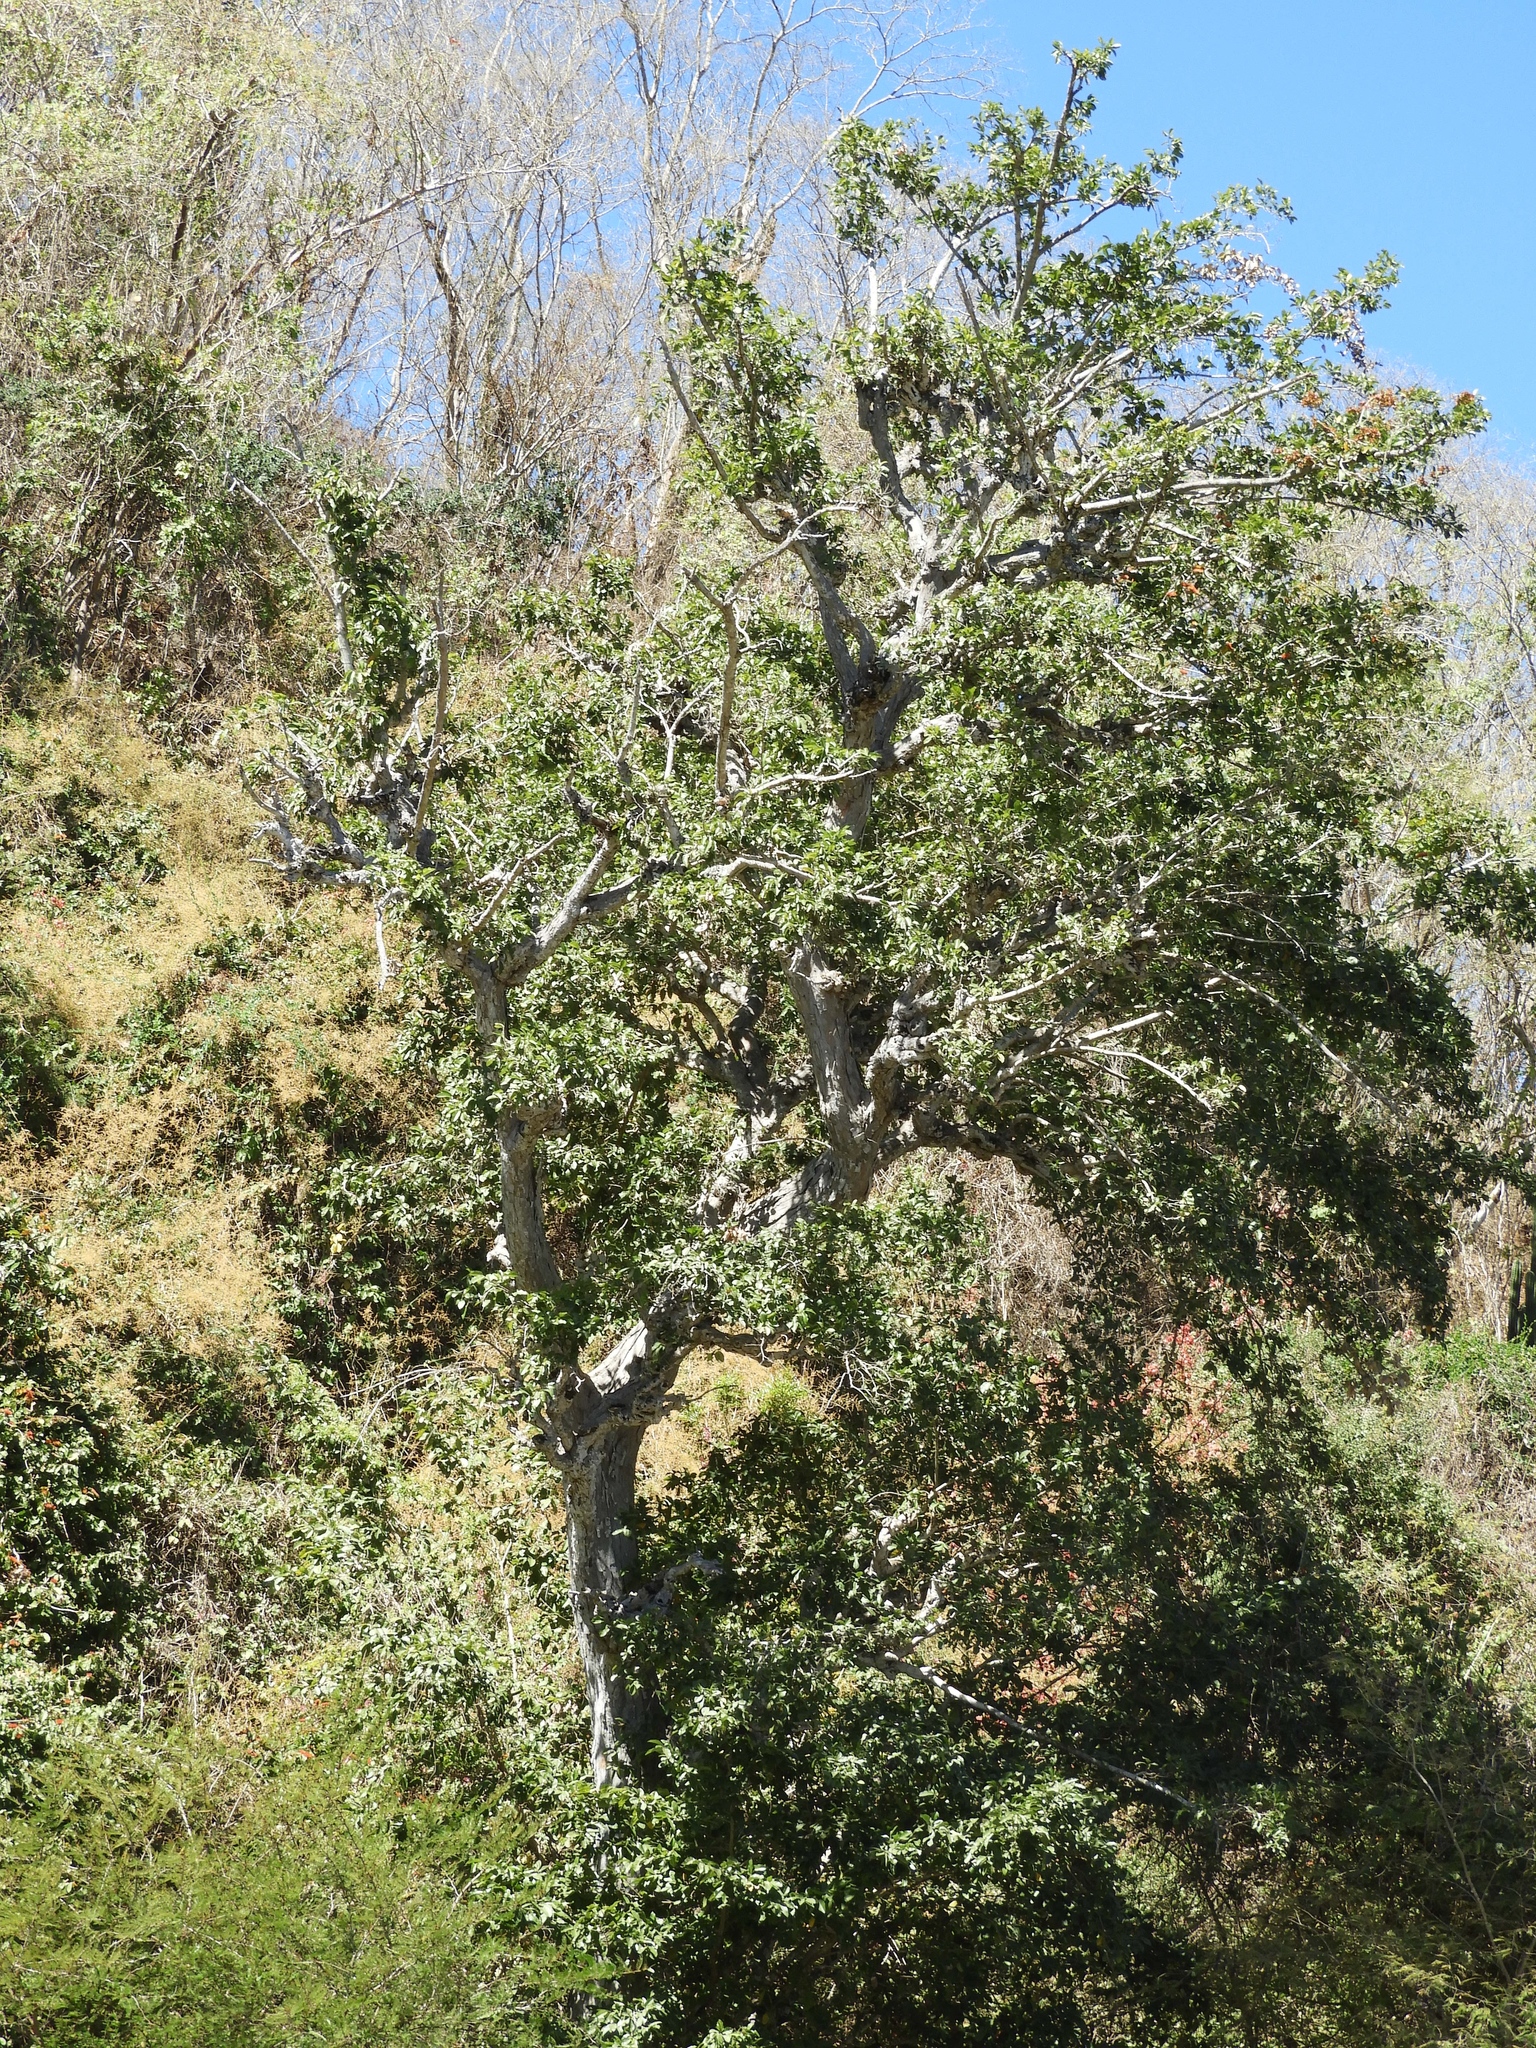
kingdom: Plantae
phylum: Tracheophyta
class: Magnoliopsida
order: Rosales
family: Moraceae
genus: Brosimum
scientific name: Brosimum alicastrum
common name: Breadnut
